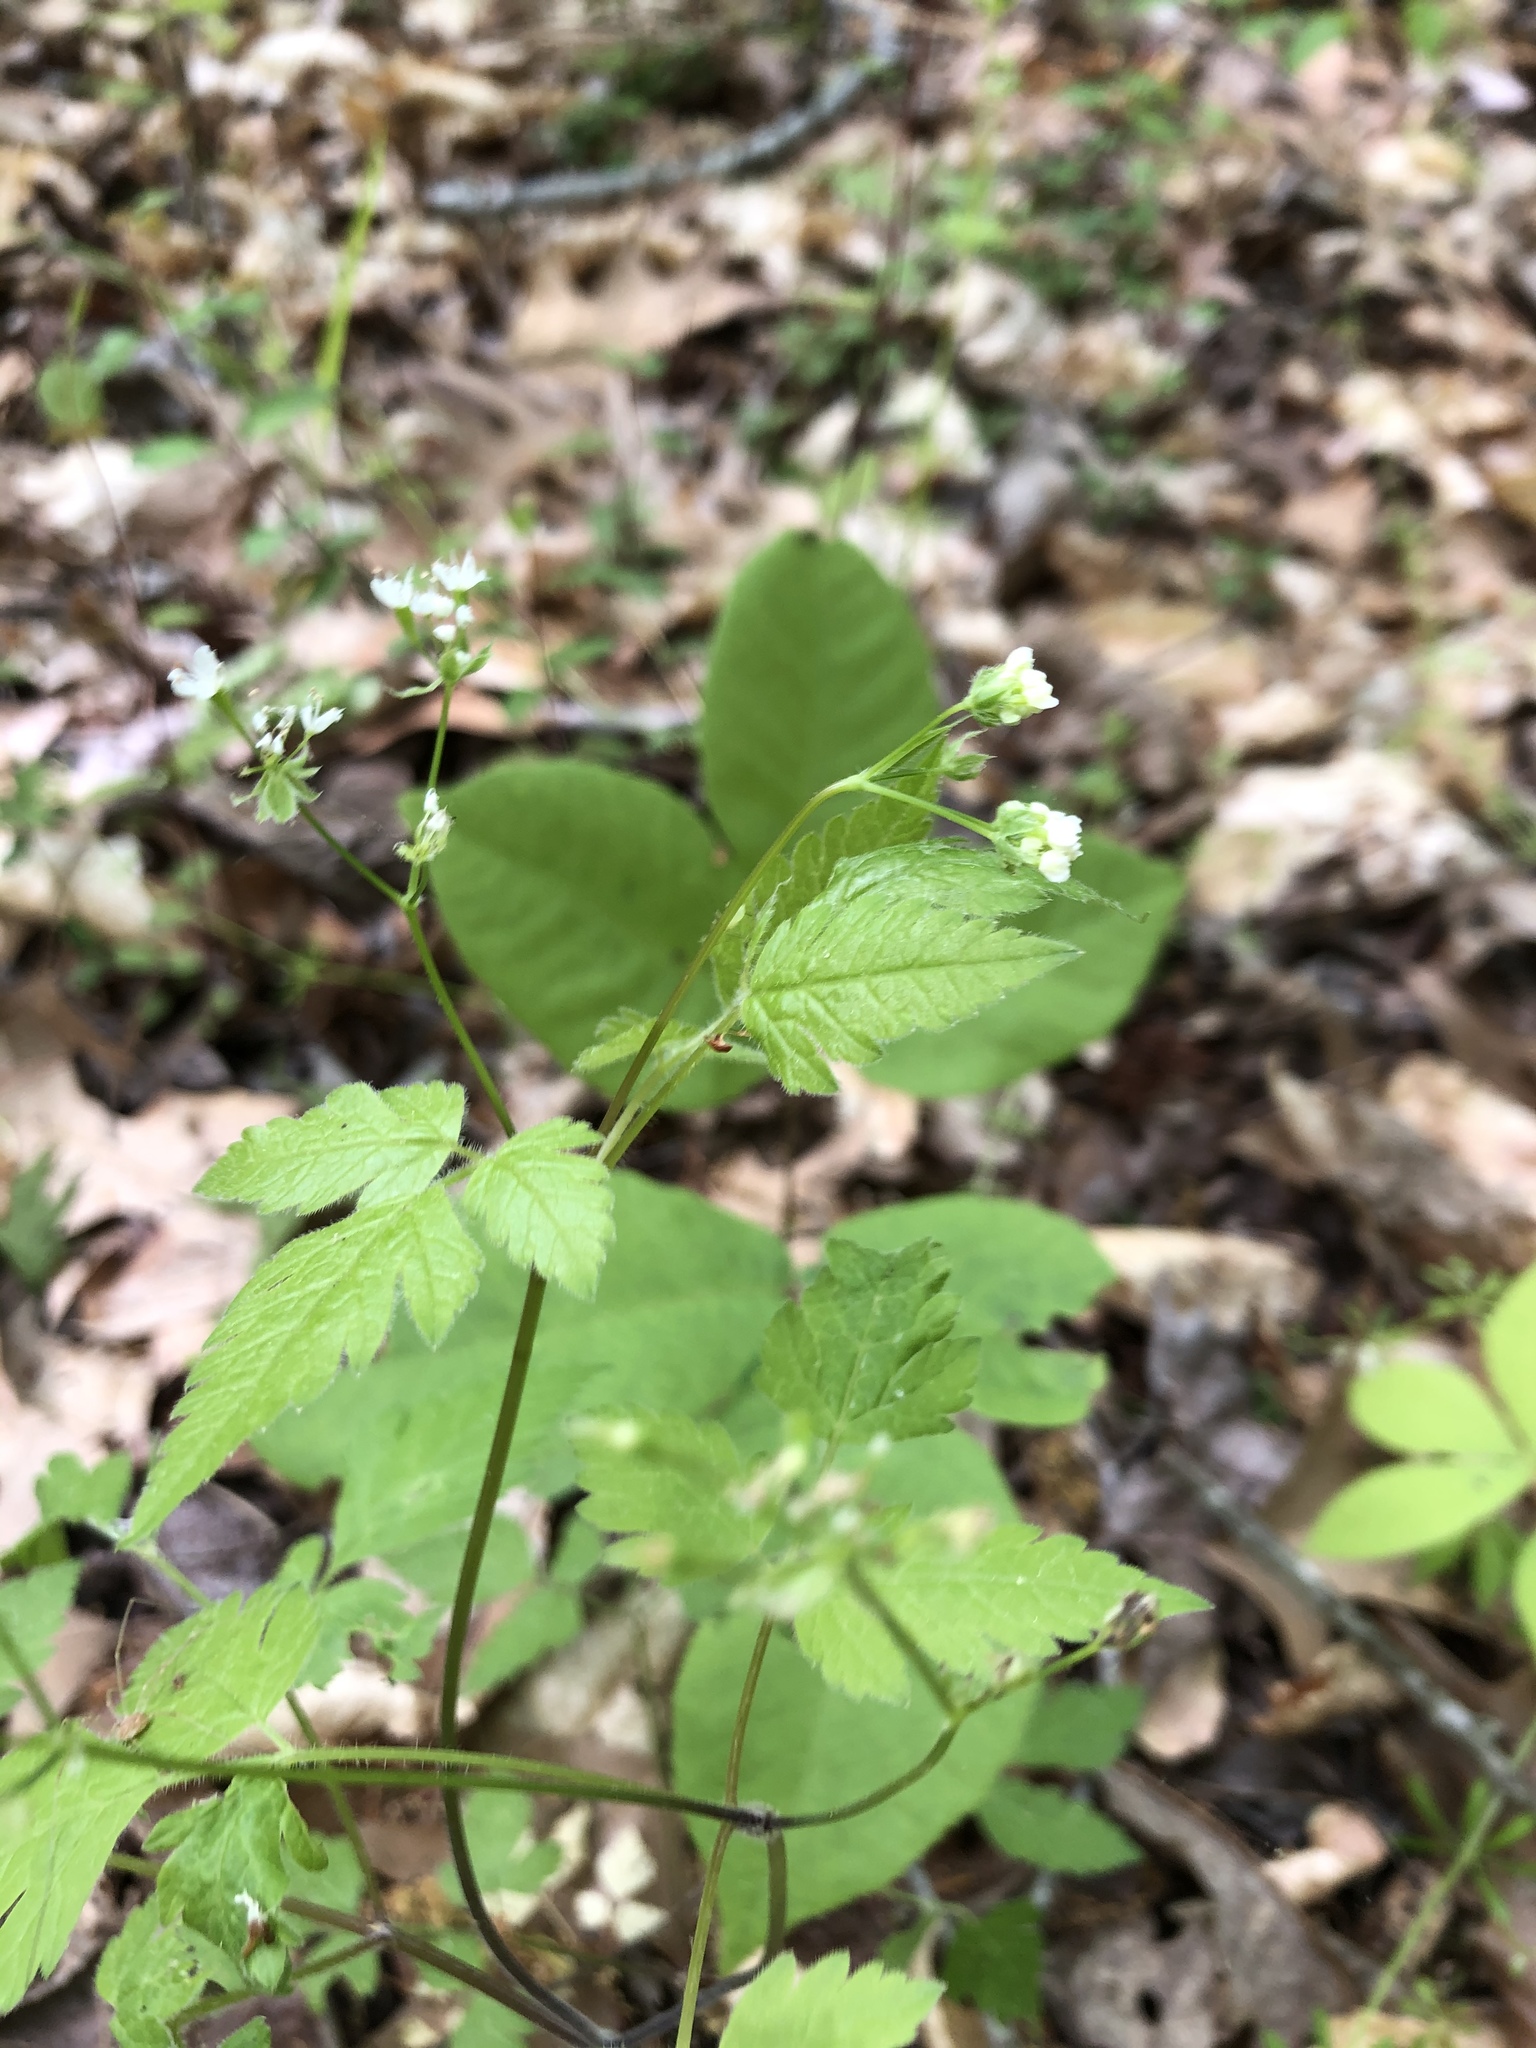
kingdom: Plantae
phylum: Tracheophyta
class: Magnoliopsida
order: Apiales
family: Apiaceae
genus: Osmorhiza
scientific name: Osmorhiza longistylis
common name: Smooth sweet cicely
